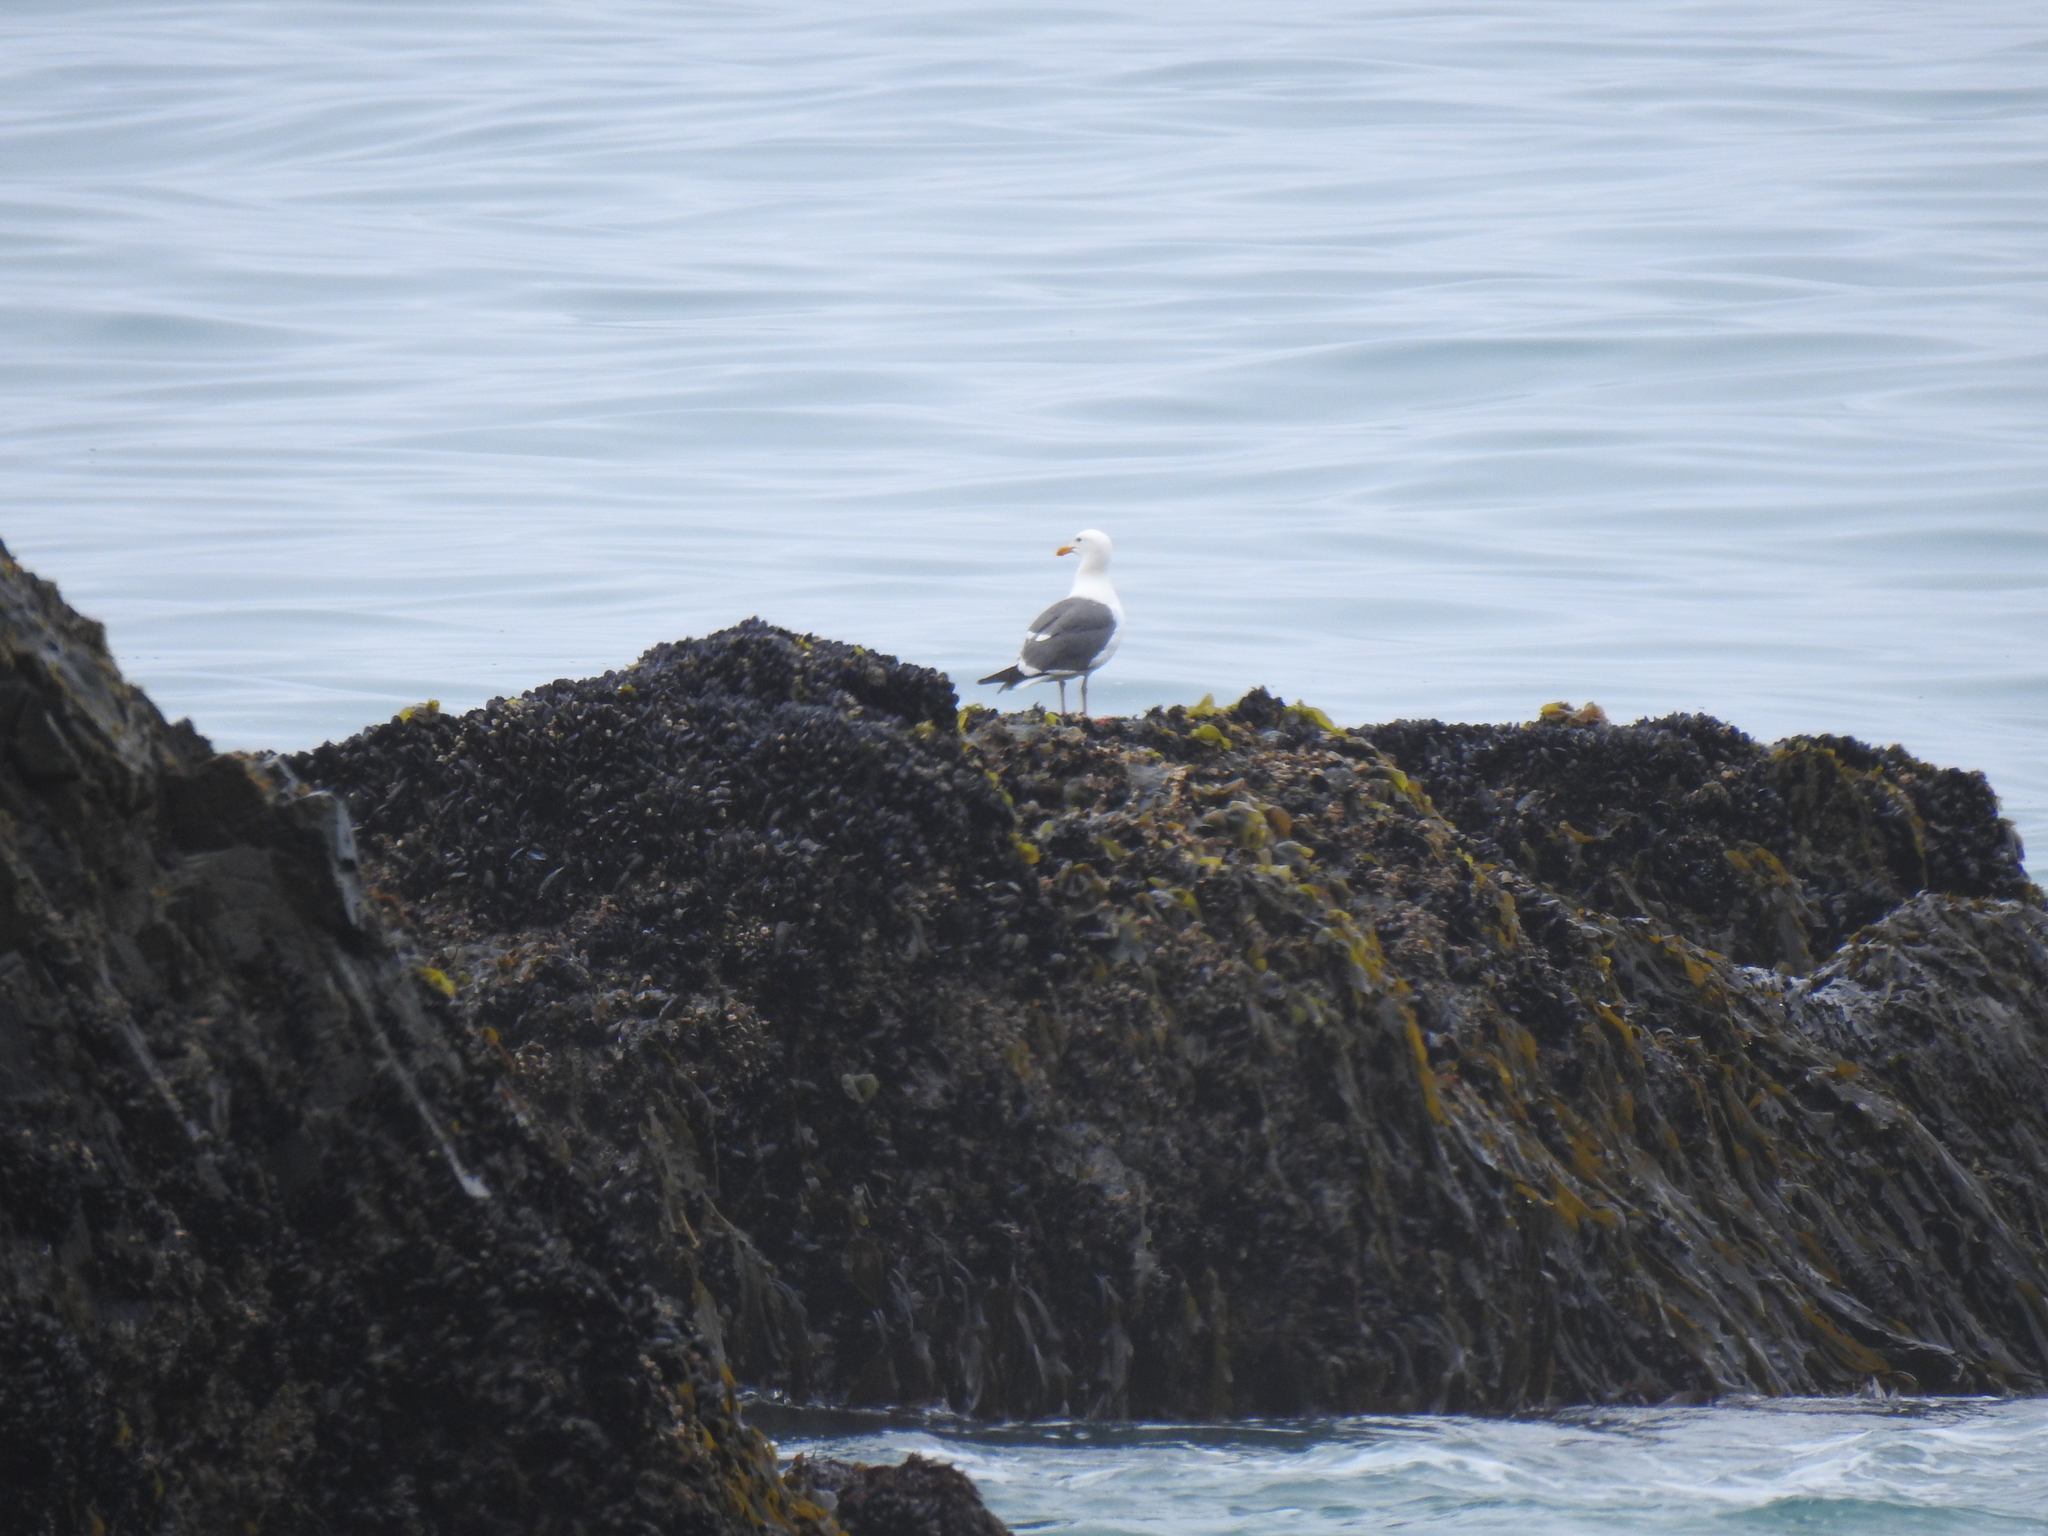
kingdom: Animalia
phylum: Chordata
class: Aves
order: Charadriiformes
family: Laridae
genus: Larus
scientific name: Larus occidentalis
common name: Western gull
